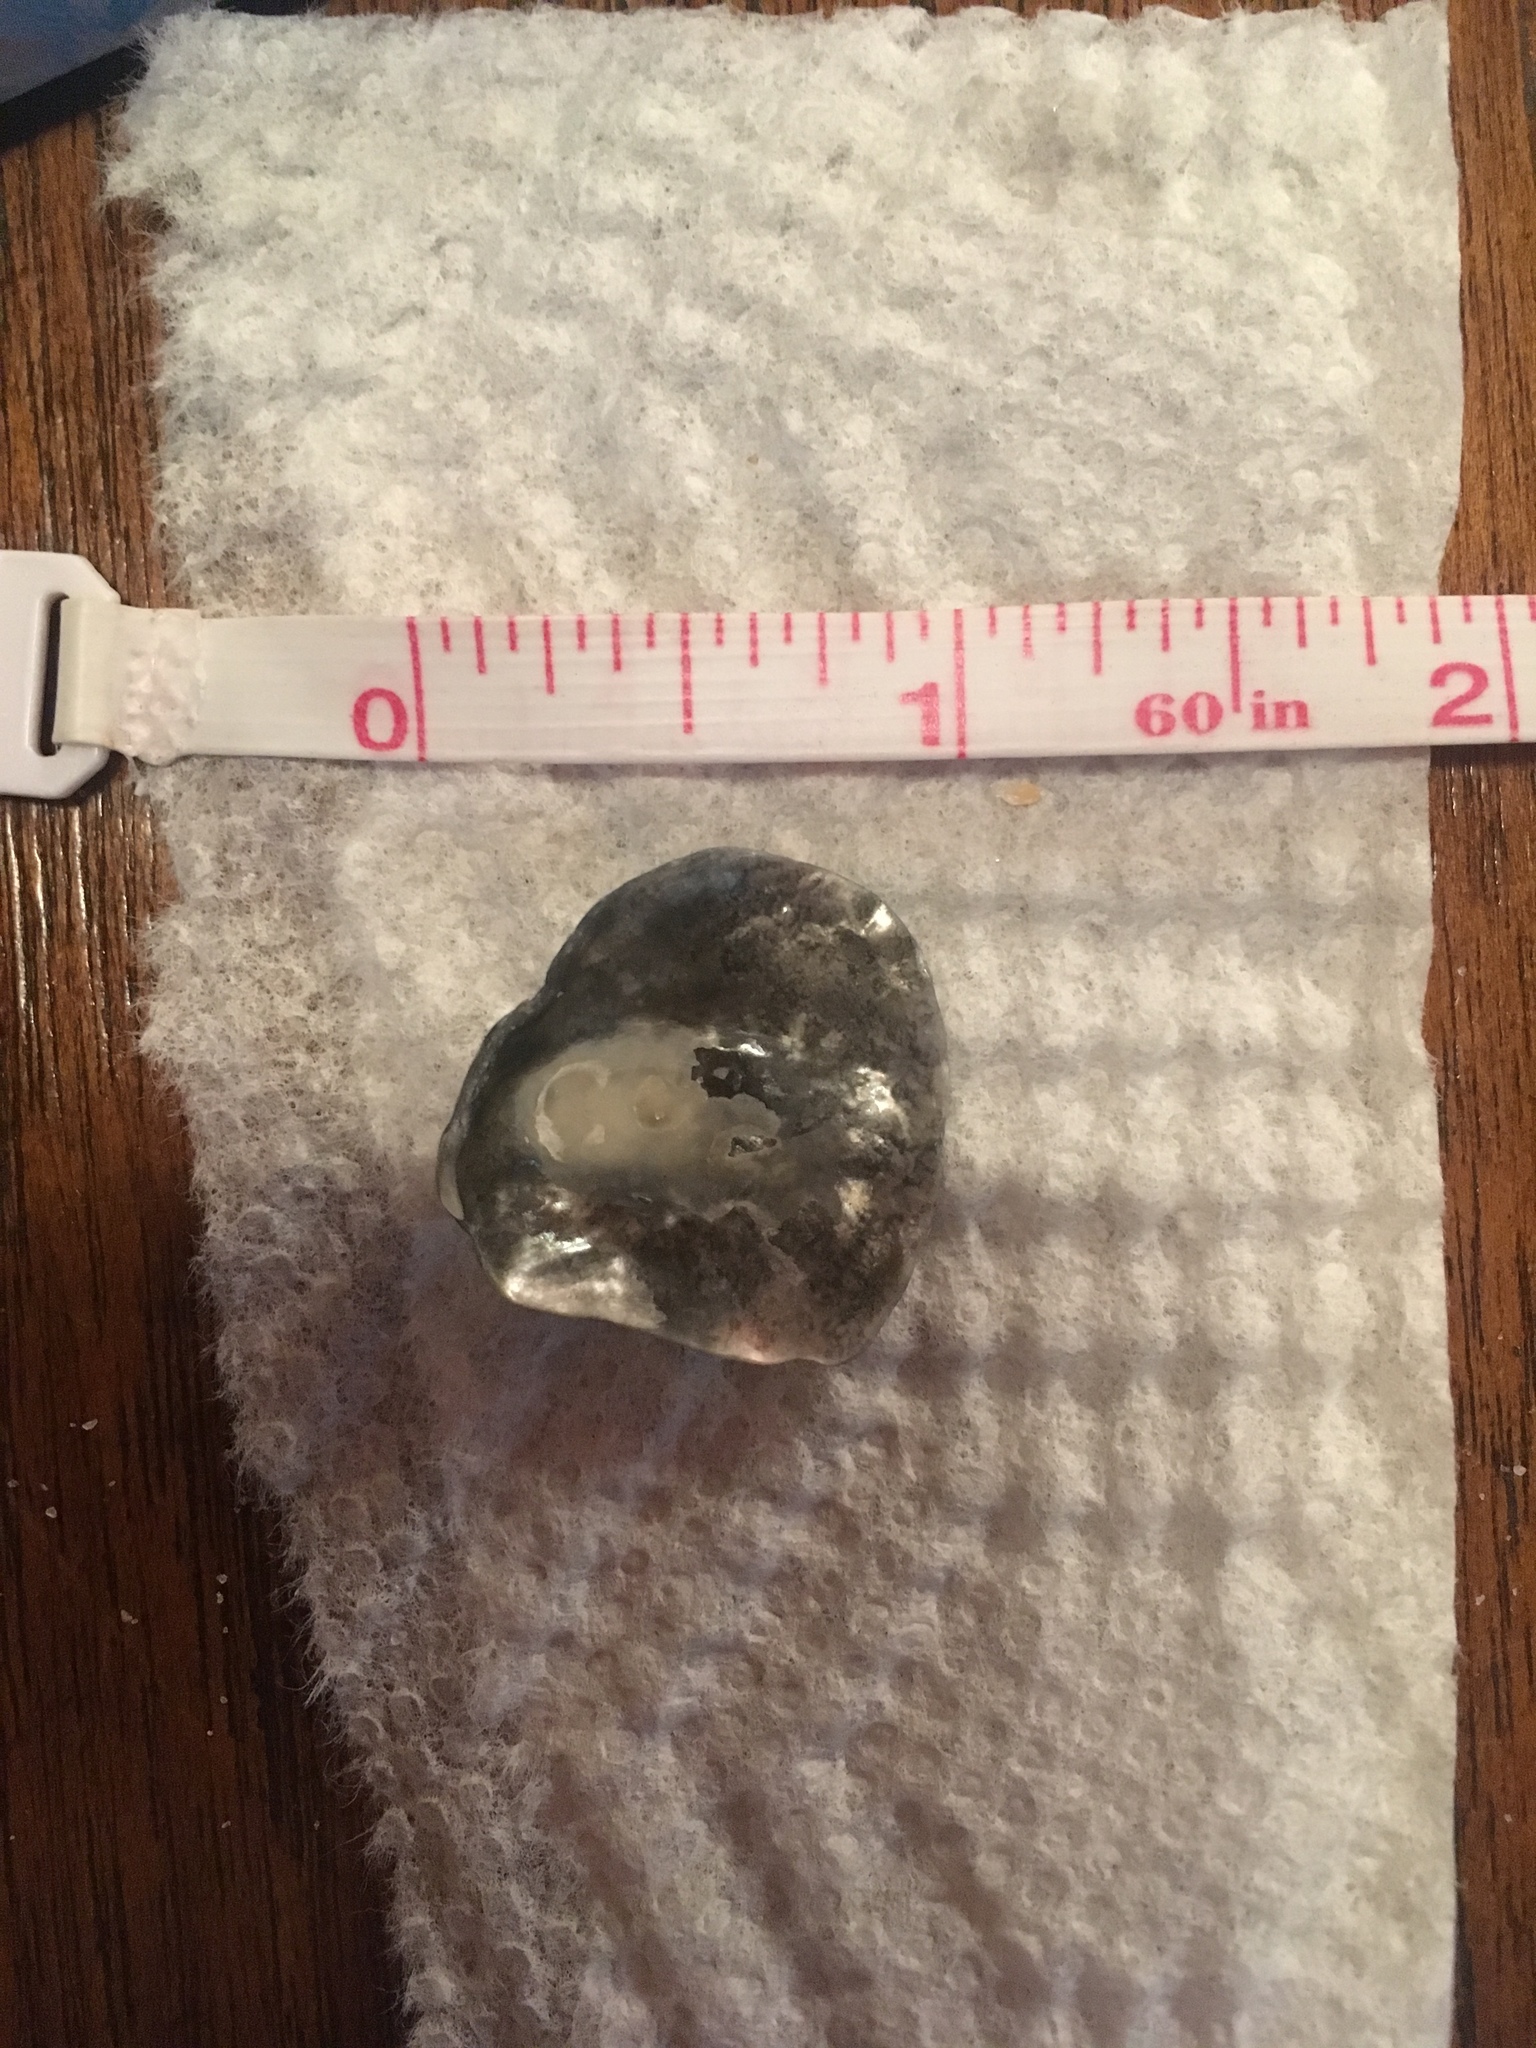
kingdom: Animalia
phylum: Mollusca
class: Bivalvia
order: Pectinida
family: Anomiidae
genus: Anomia
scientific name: Anomia simplex
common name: Common jingle shell
